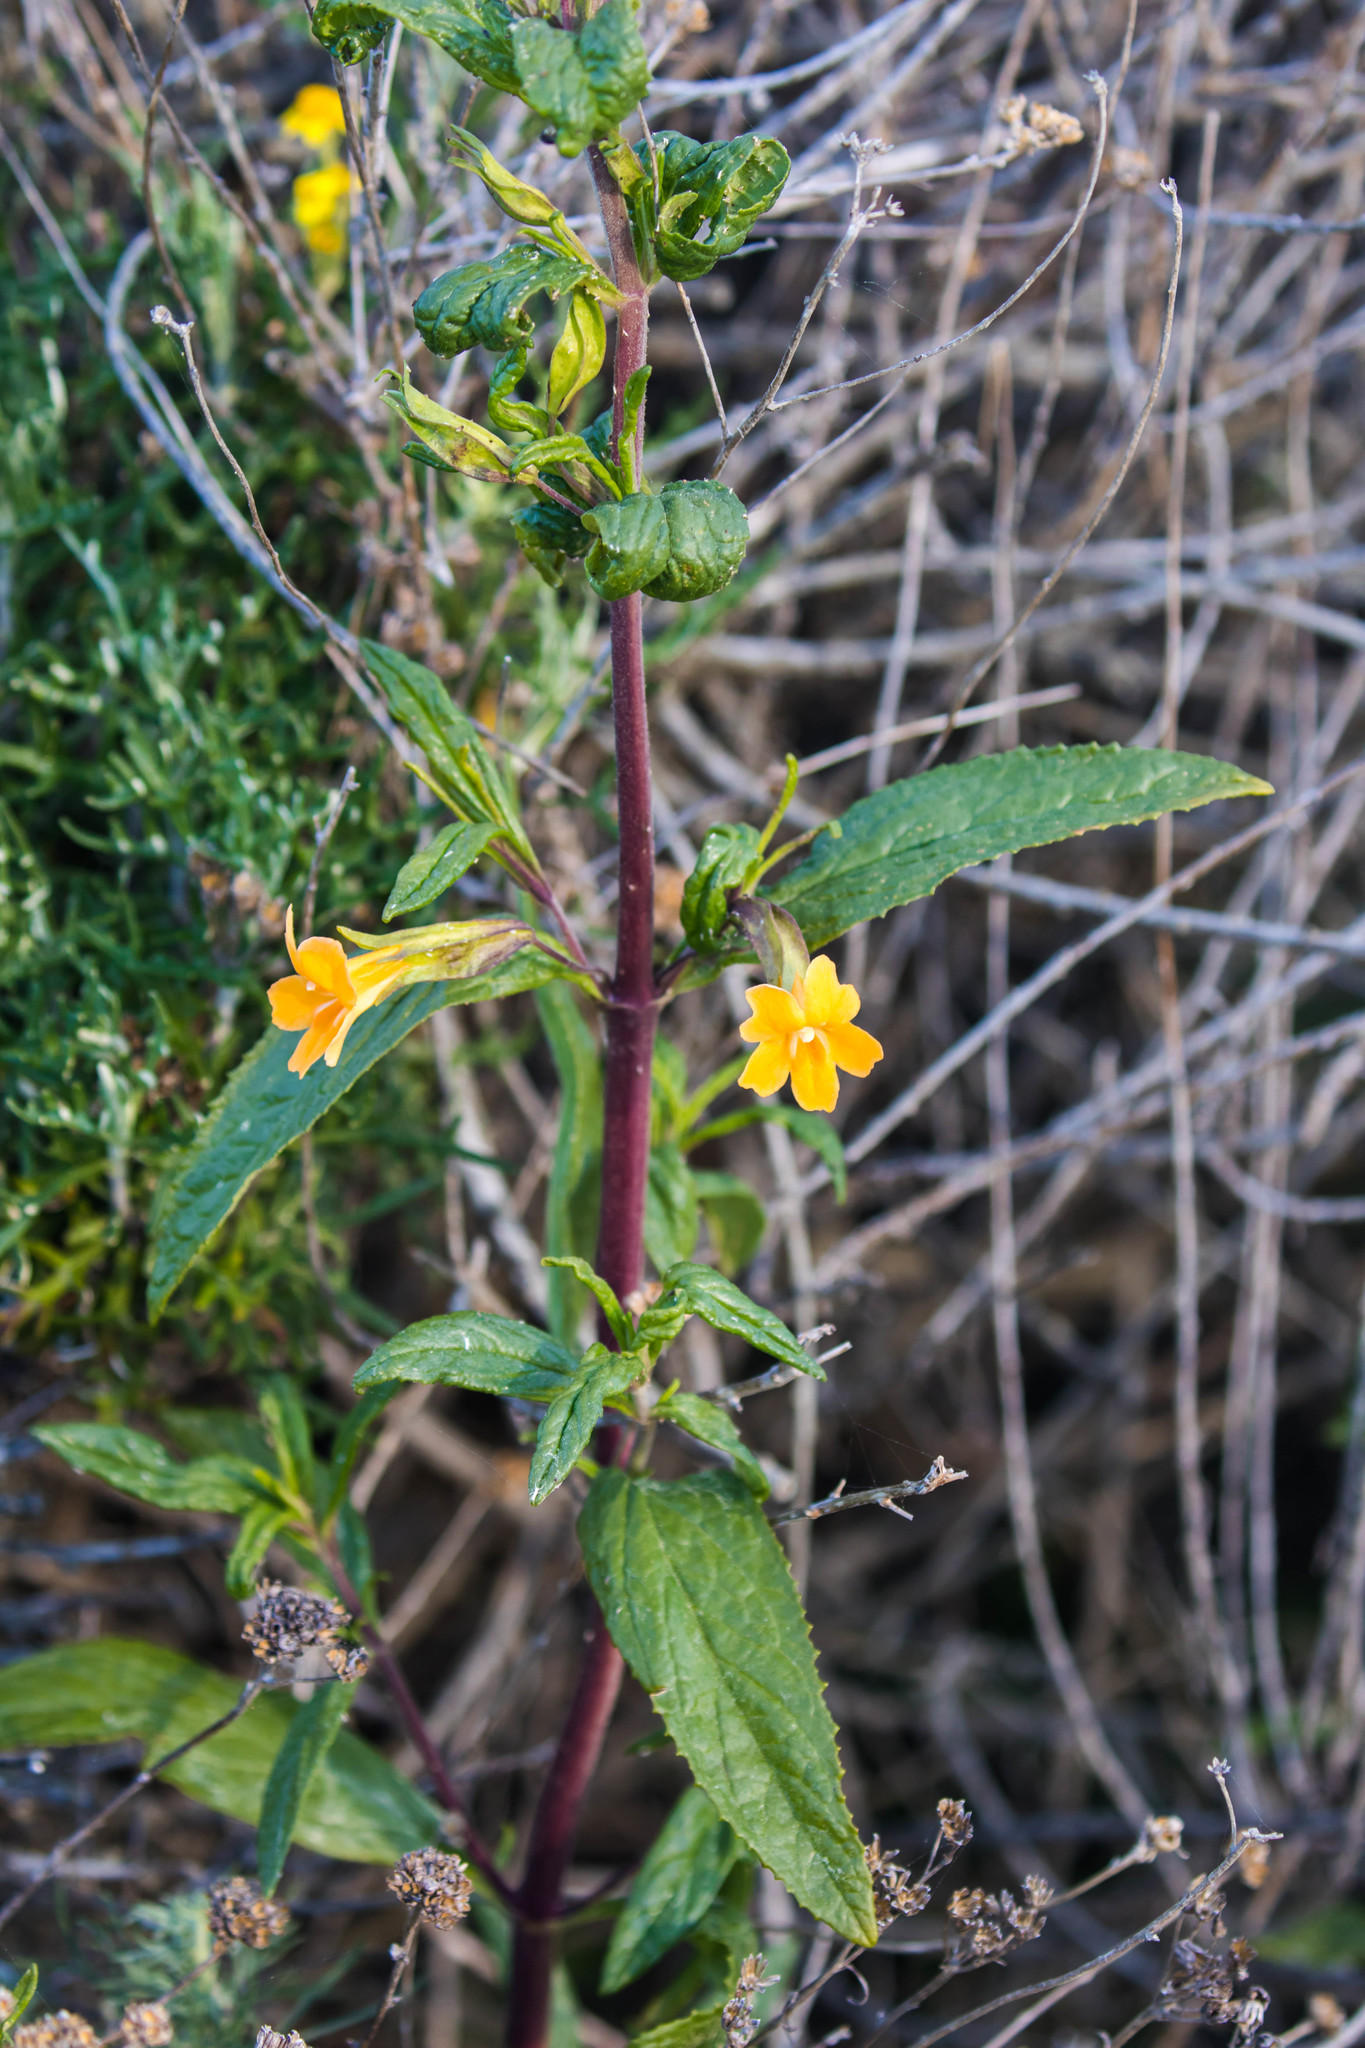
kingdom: Plantae
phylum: Tracheophyta
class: Magnoliopsida
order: Lamiales
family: Phrymaceae
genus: Diplacus
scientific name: Diplacus aurantiacus
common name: Bush monkey-flower
